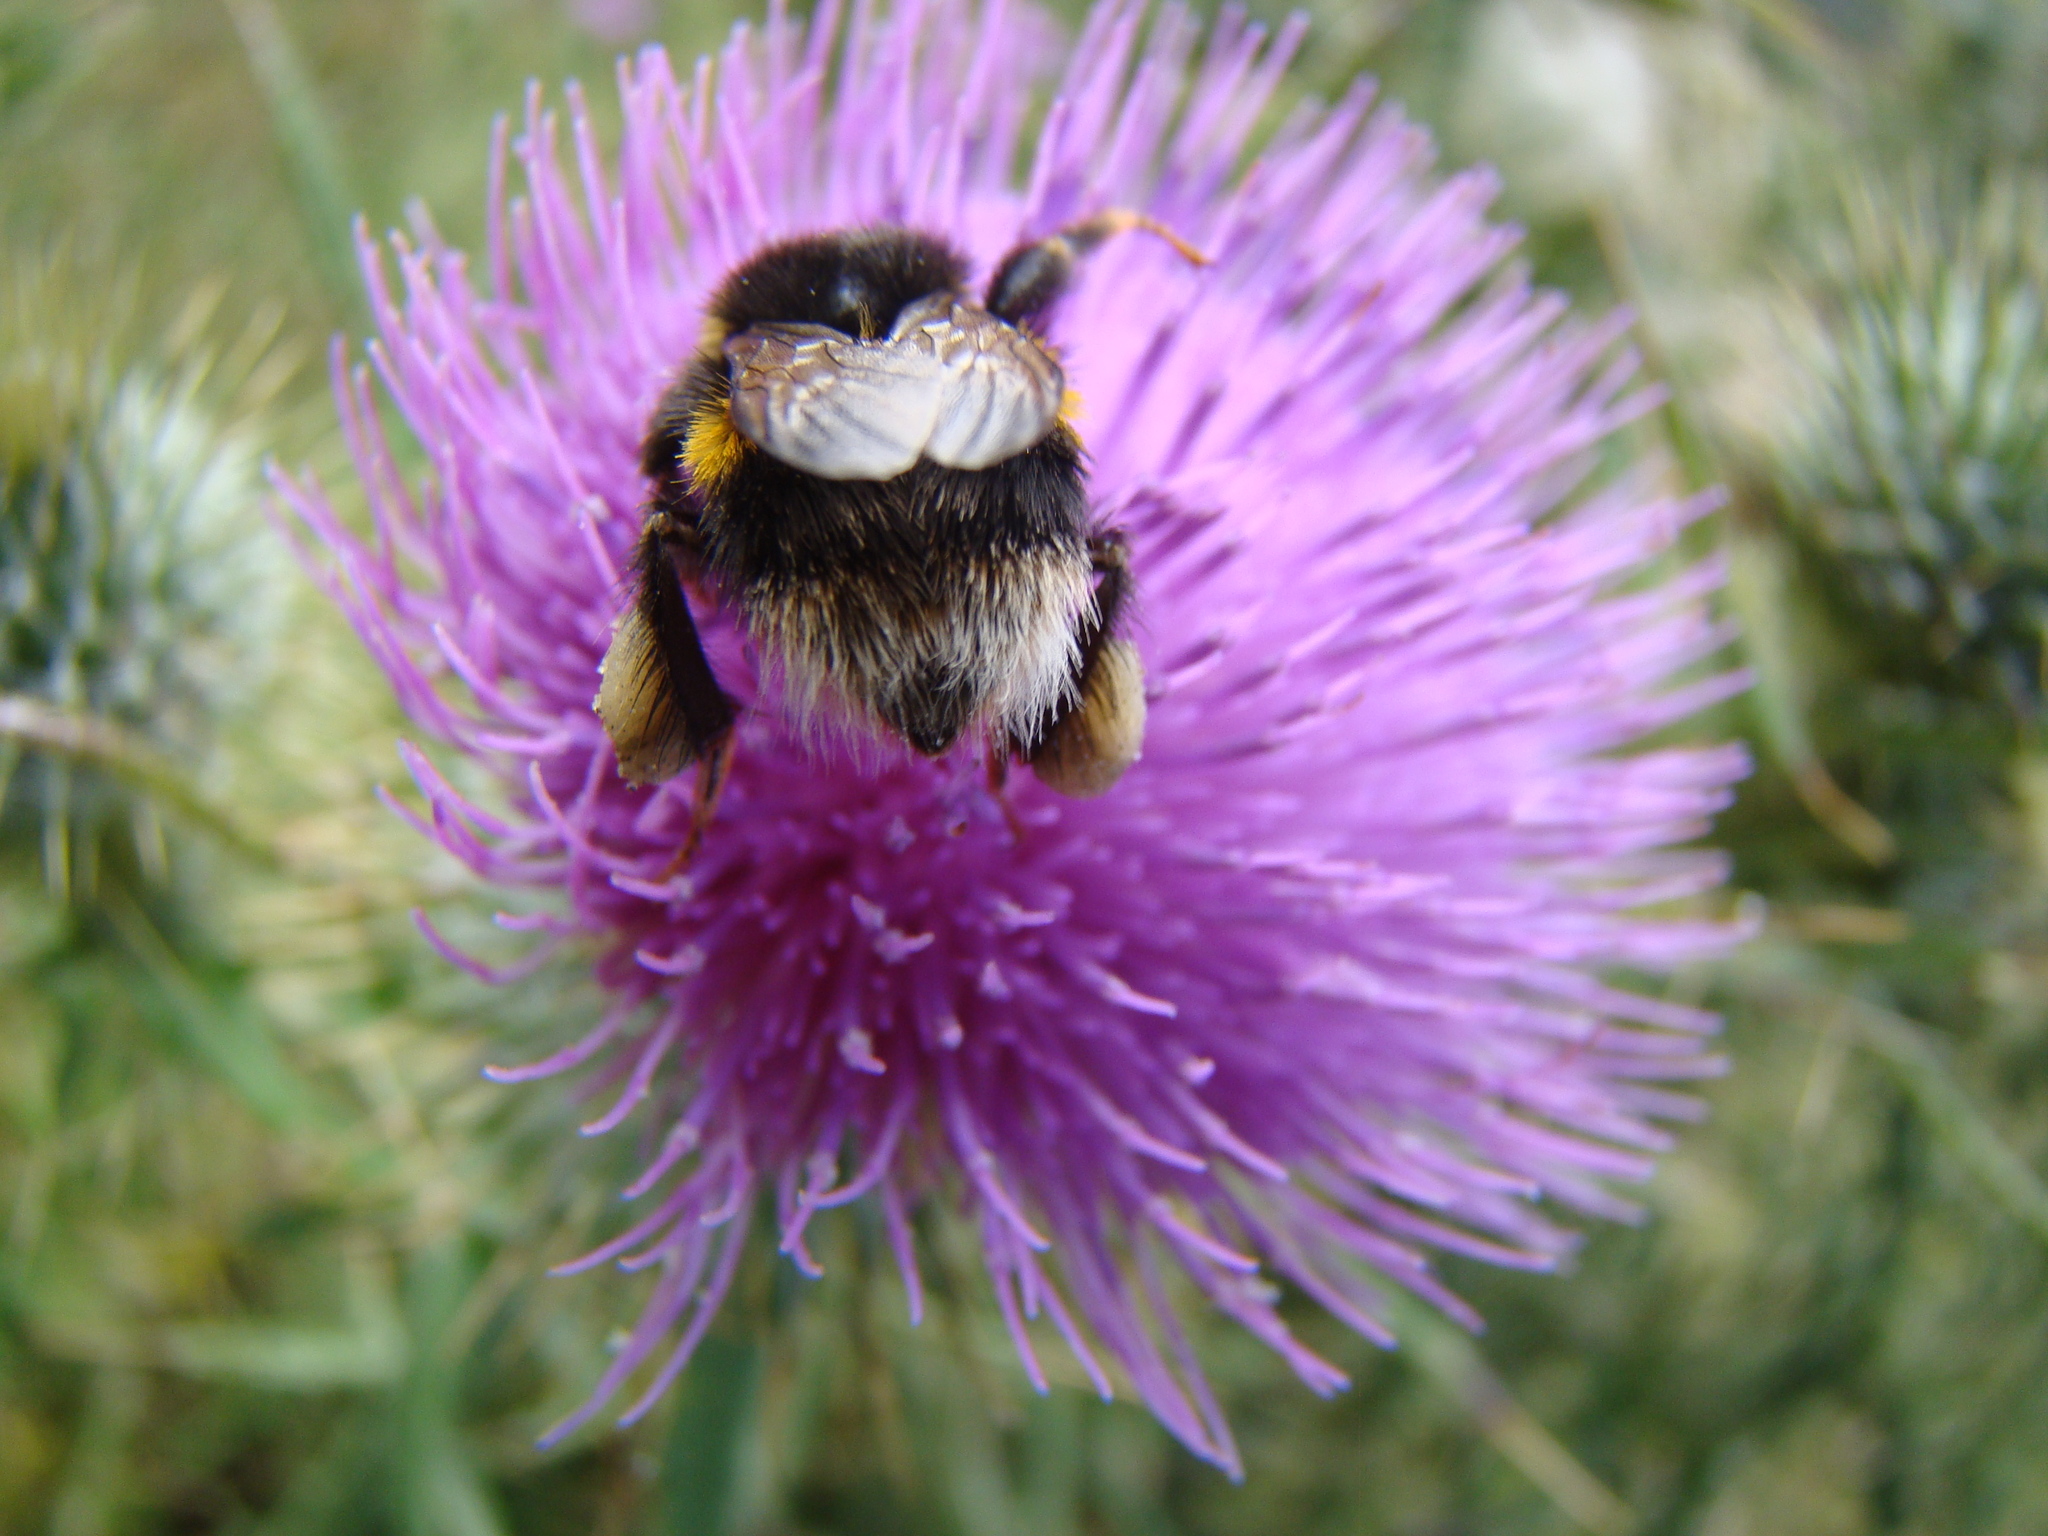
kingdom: Animalia
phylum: Arthropoda
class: Insecta
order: Hymenoptera
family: Apidae
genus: Bombus
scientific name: Bombus terrestris
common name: Buff-tailed bumblebee
